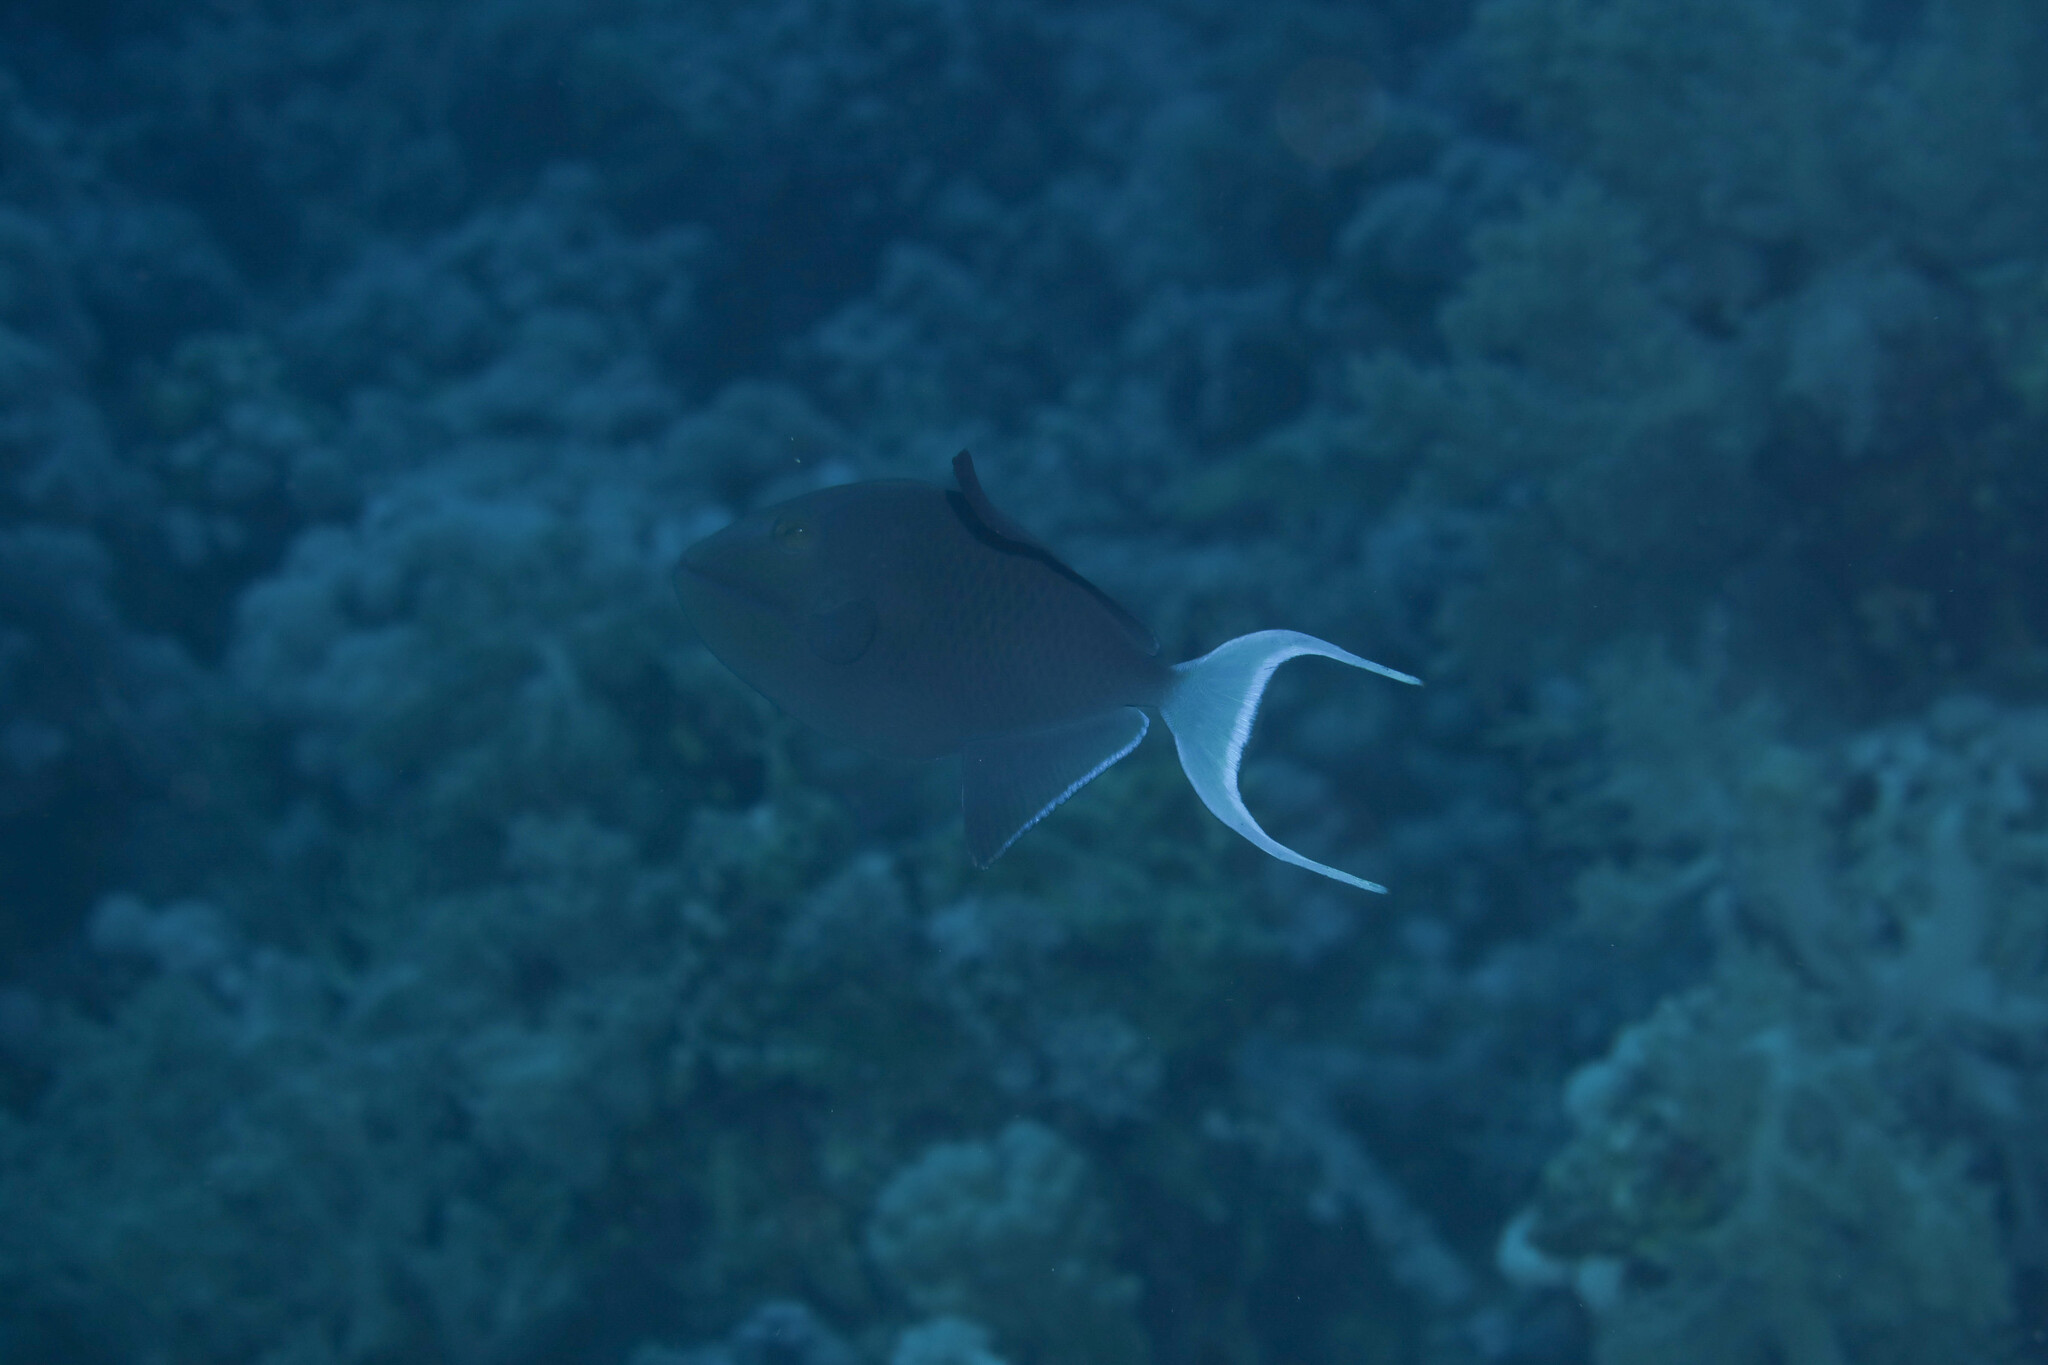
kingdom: Animalia
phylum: Chordata
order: Tetraodontiformes
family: Balistidae
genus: Odonus
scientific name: Odonus niger
